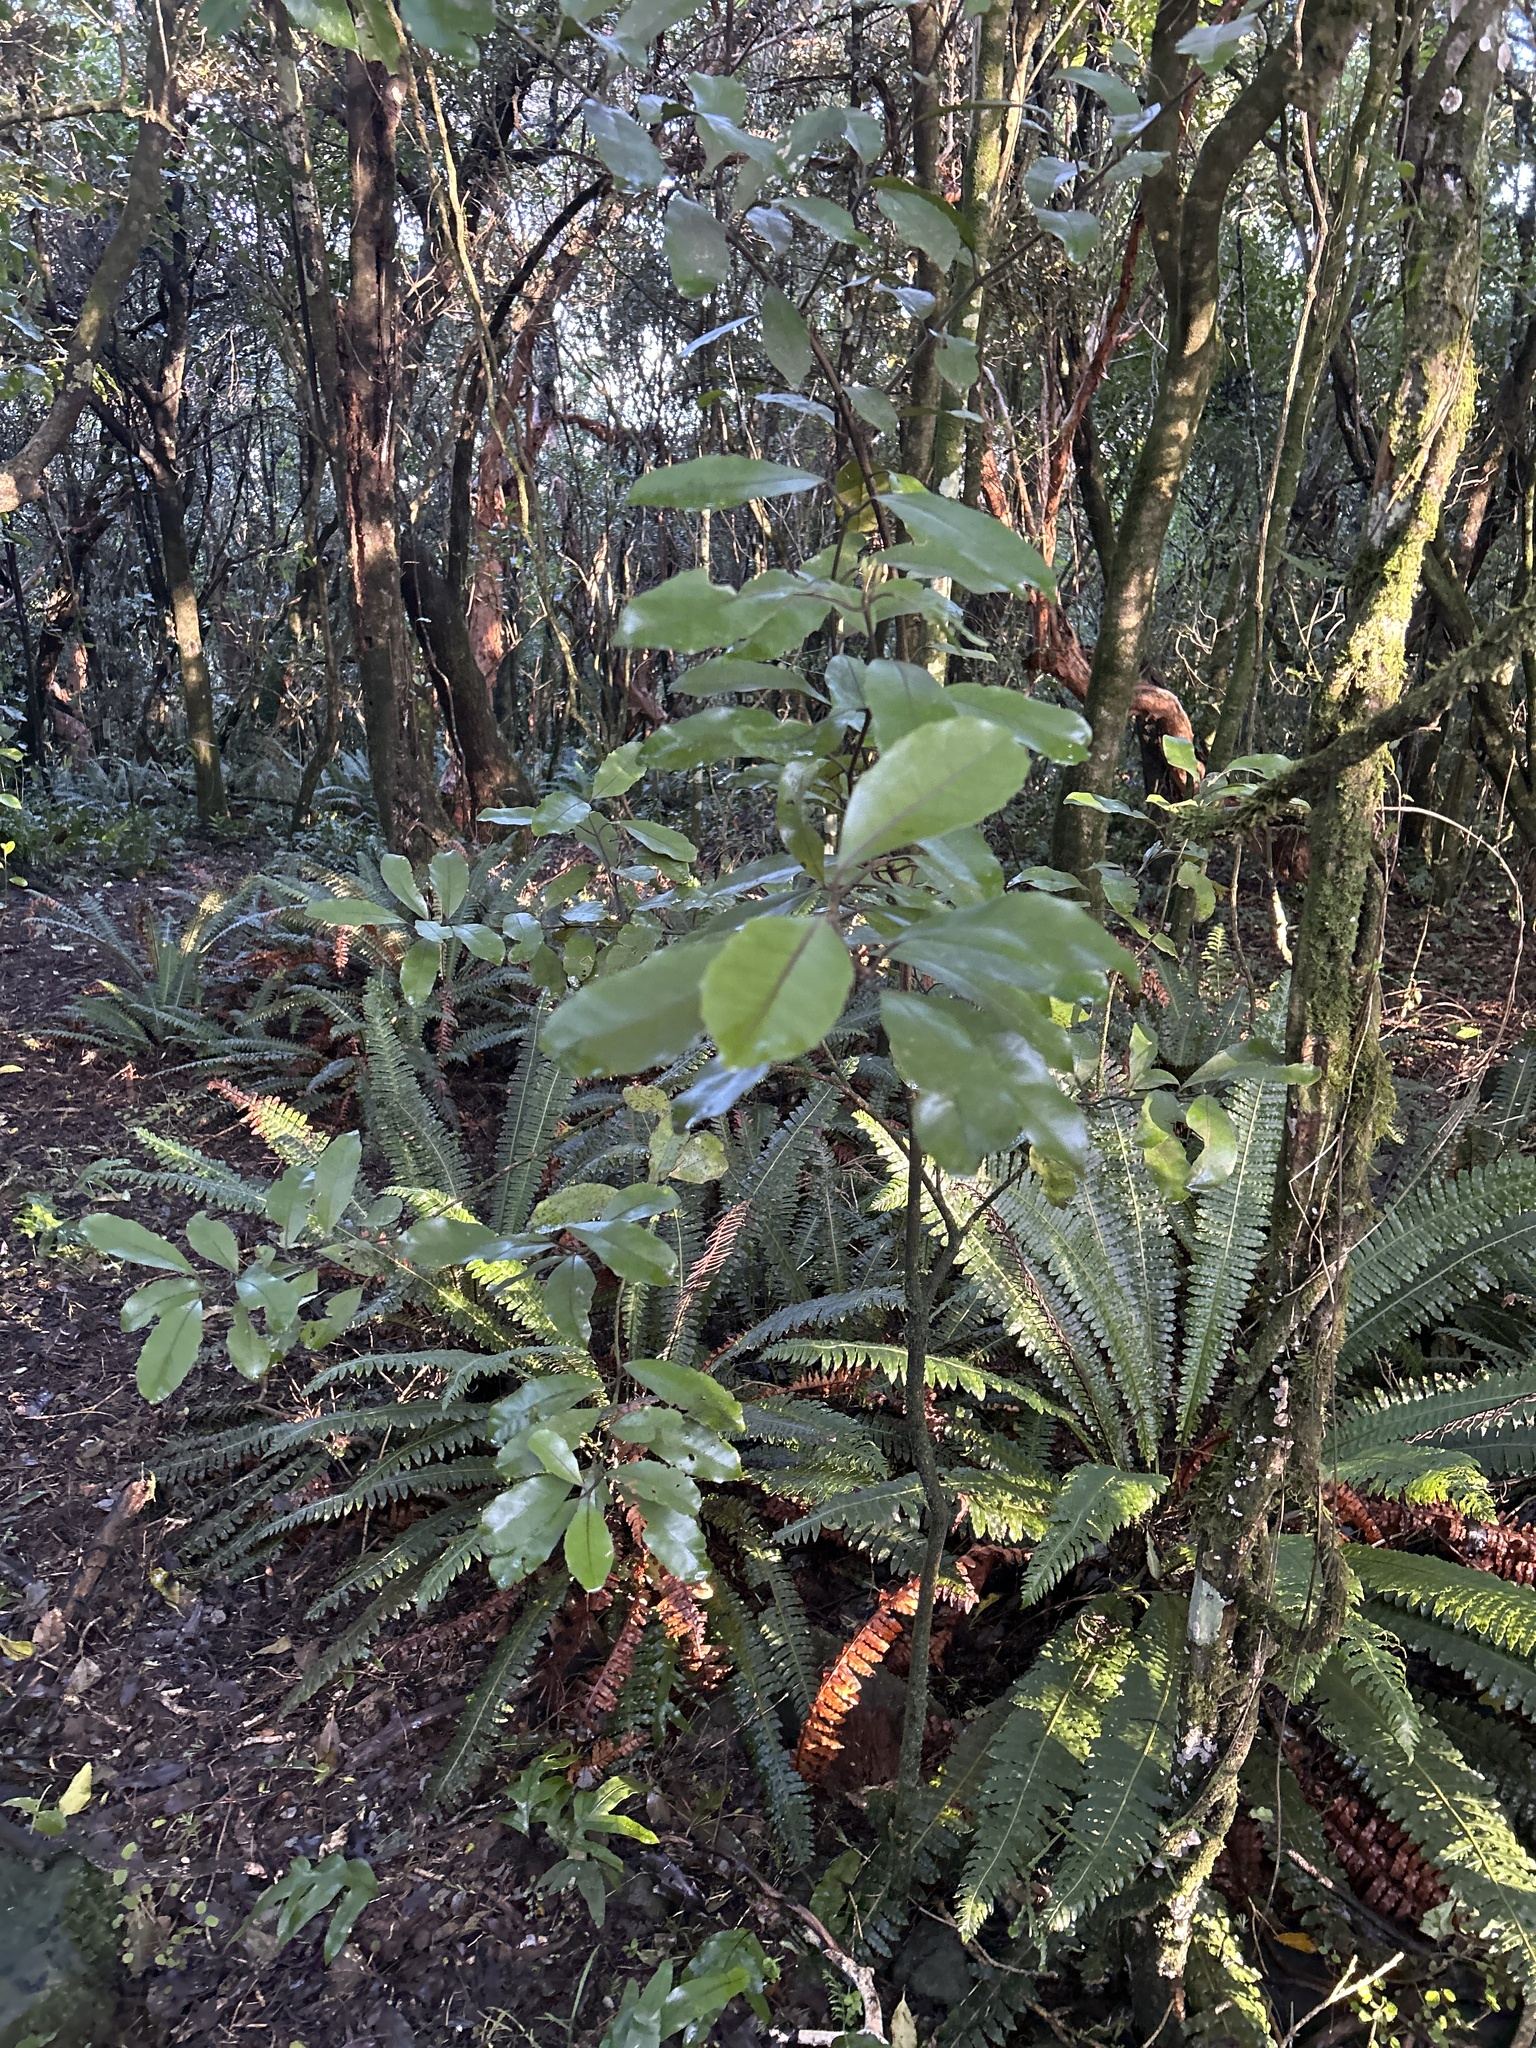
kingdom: Plantae
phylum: Tracheophyta
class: Magnoliopsida
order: Laurales
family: Monimiaceae
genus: Hedycarya
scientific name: Hedycarya arborea
